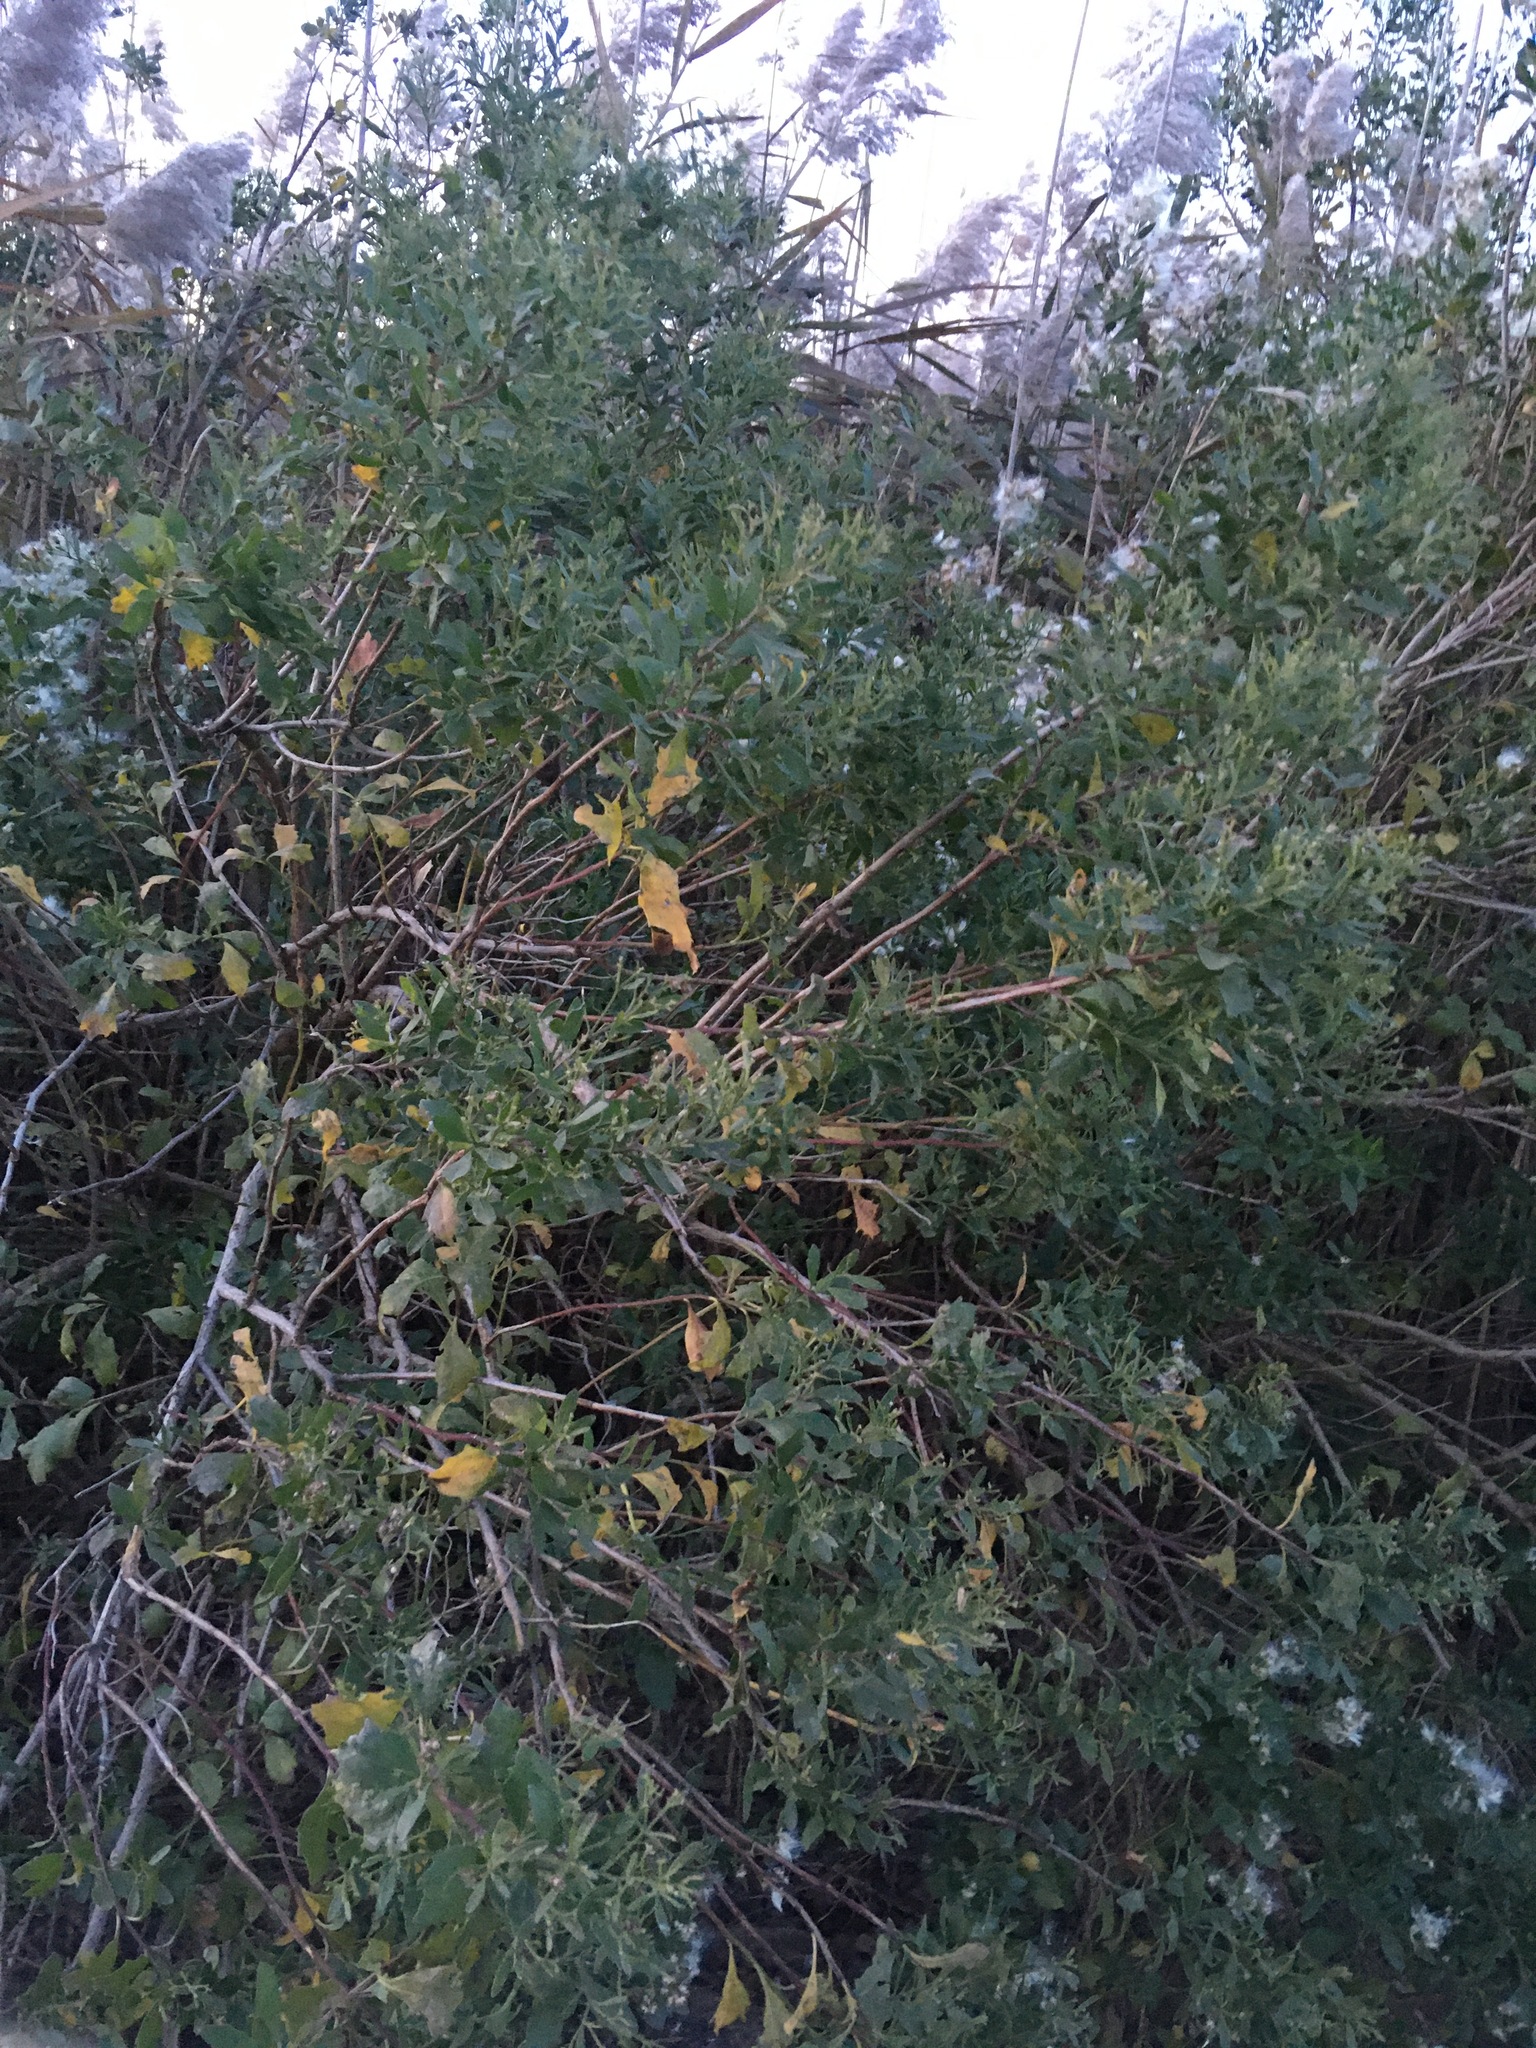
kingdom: Plantae
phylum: Tracheophyta
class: Magnoliopsida
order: Asterales
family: Asteraceae
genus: Baccharis
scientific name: Baccharis halimifolia
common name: Eastern baccharis
